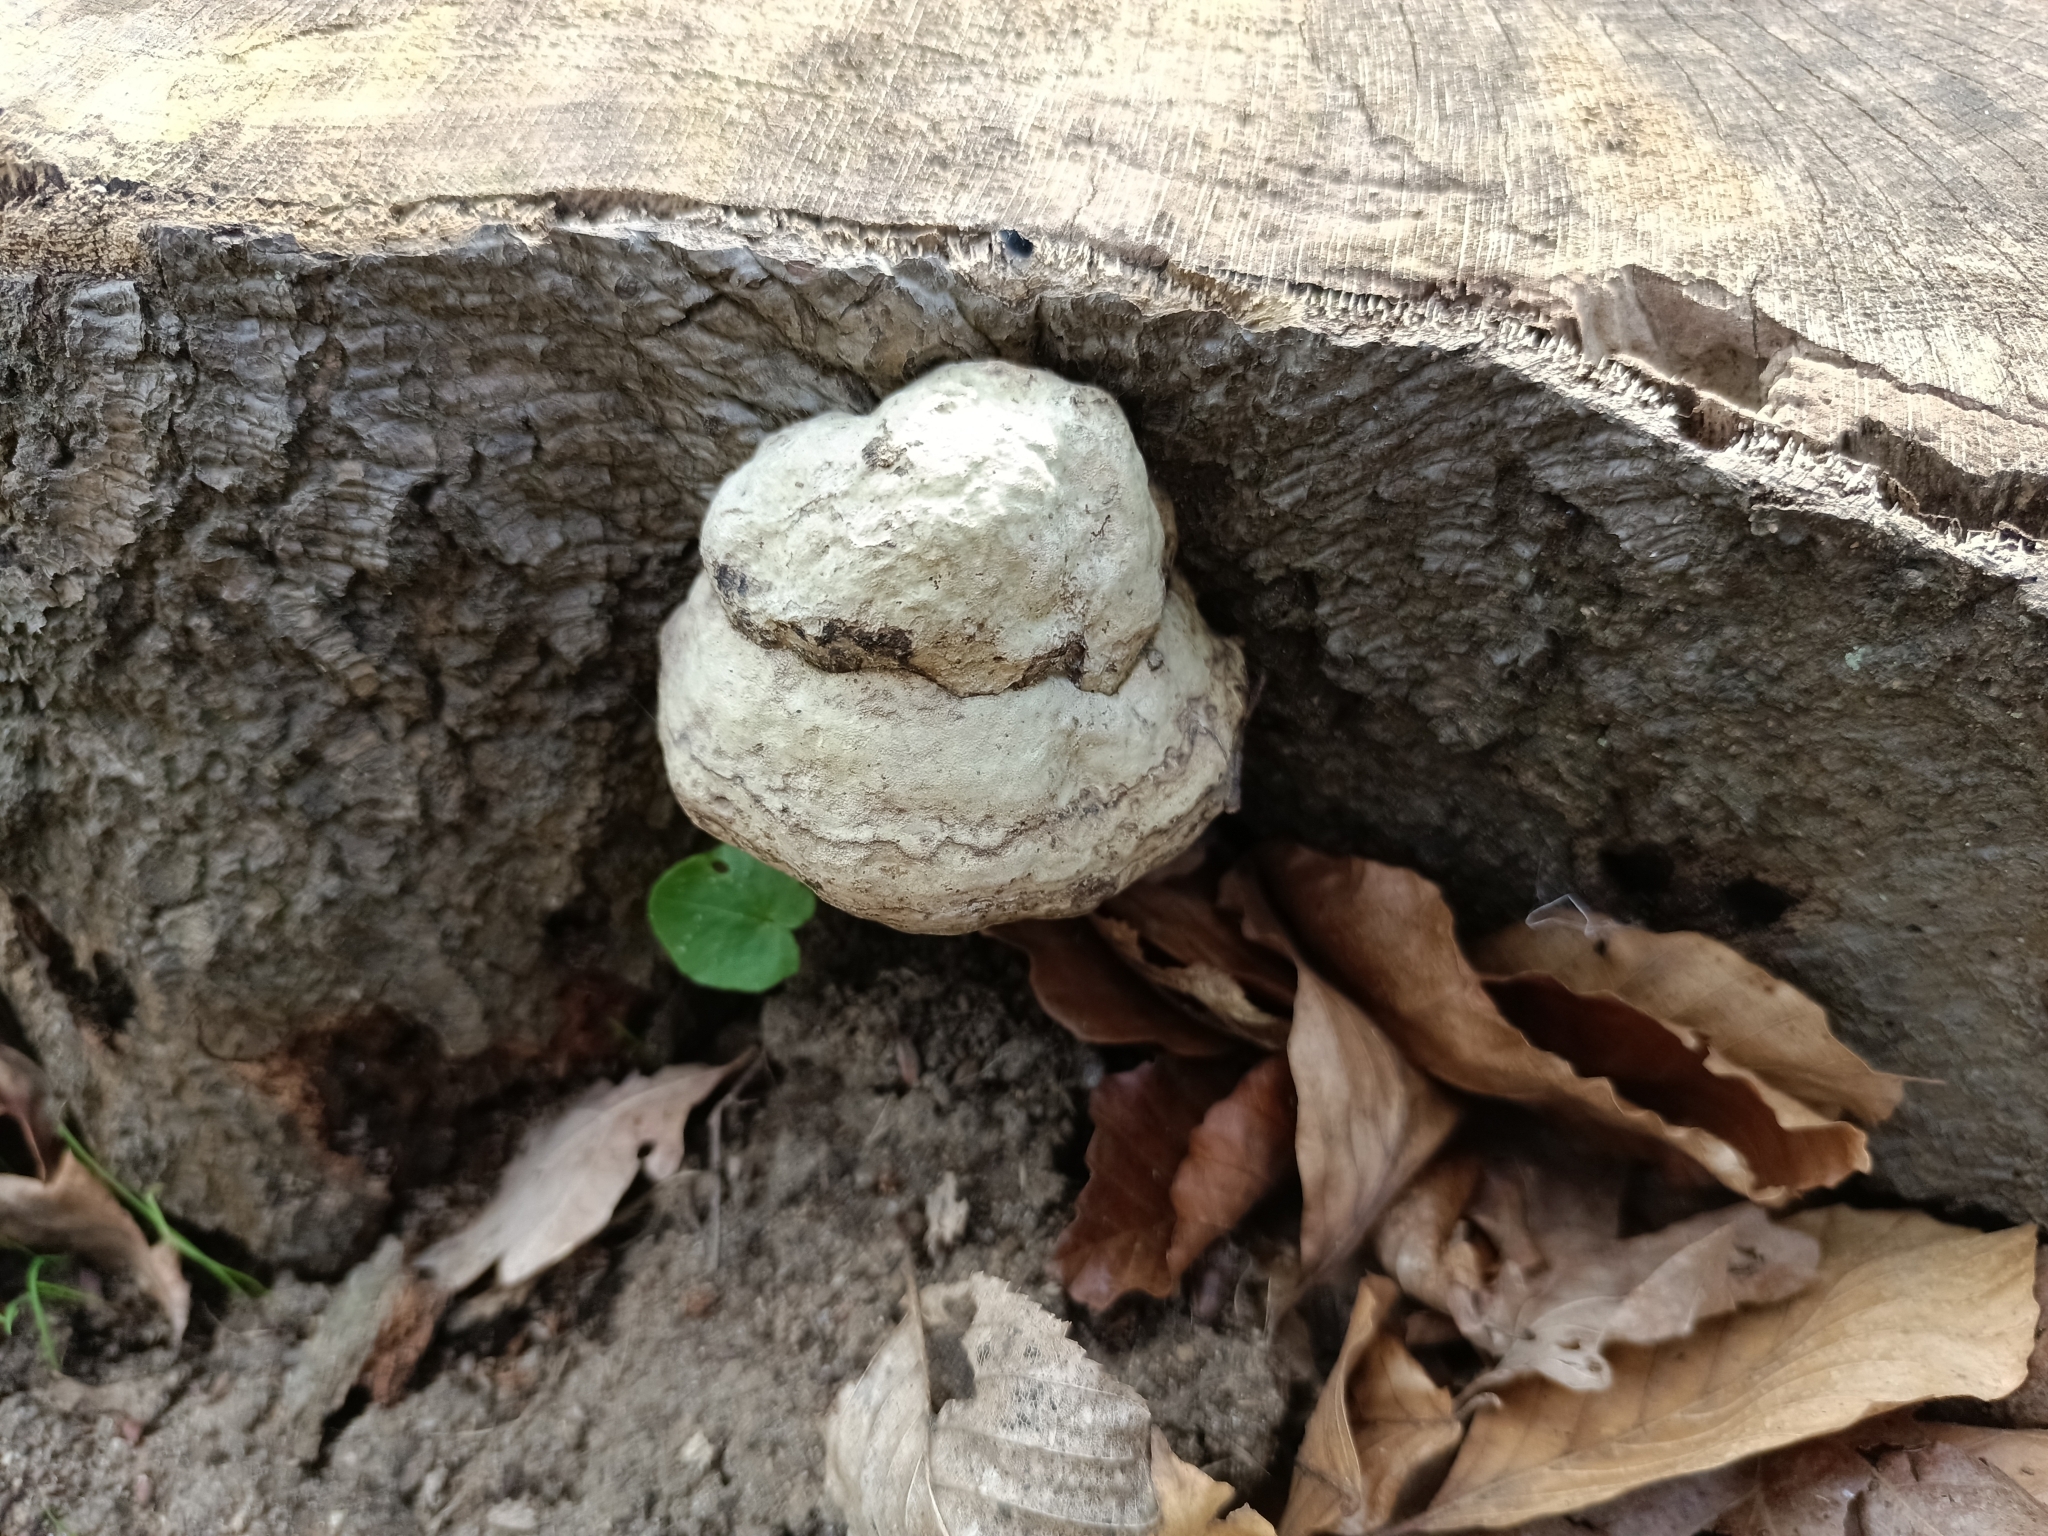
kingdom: Fungi
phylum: Basidiomycota
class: Agaricomycetes
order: Polyporales
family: Polyporaceae
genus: Fomes
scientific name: Fomes fomentarius
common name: Hoof fungus
